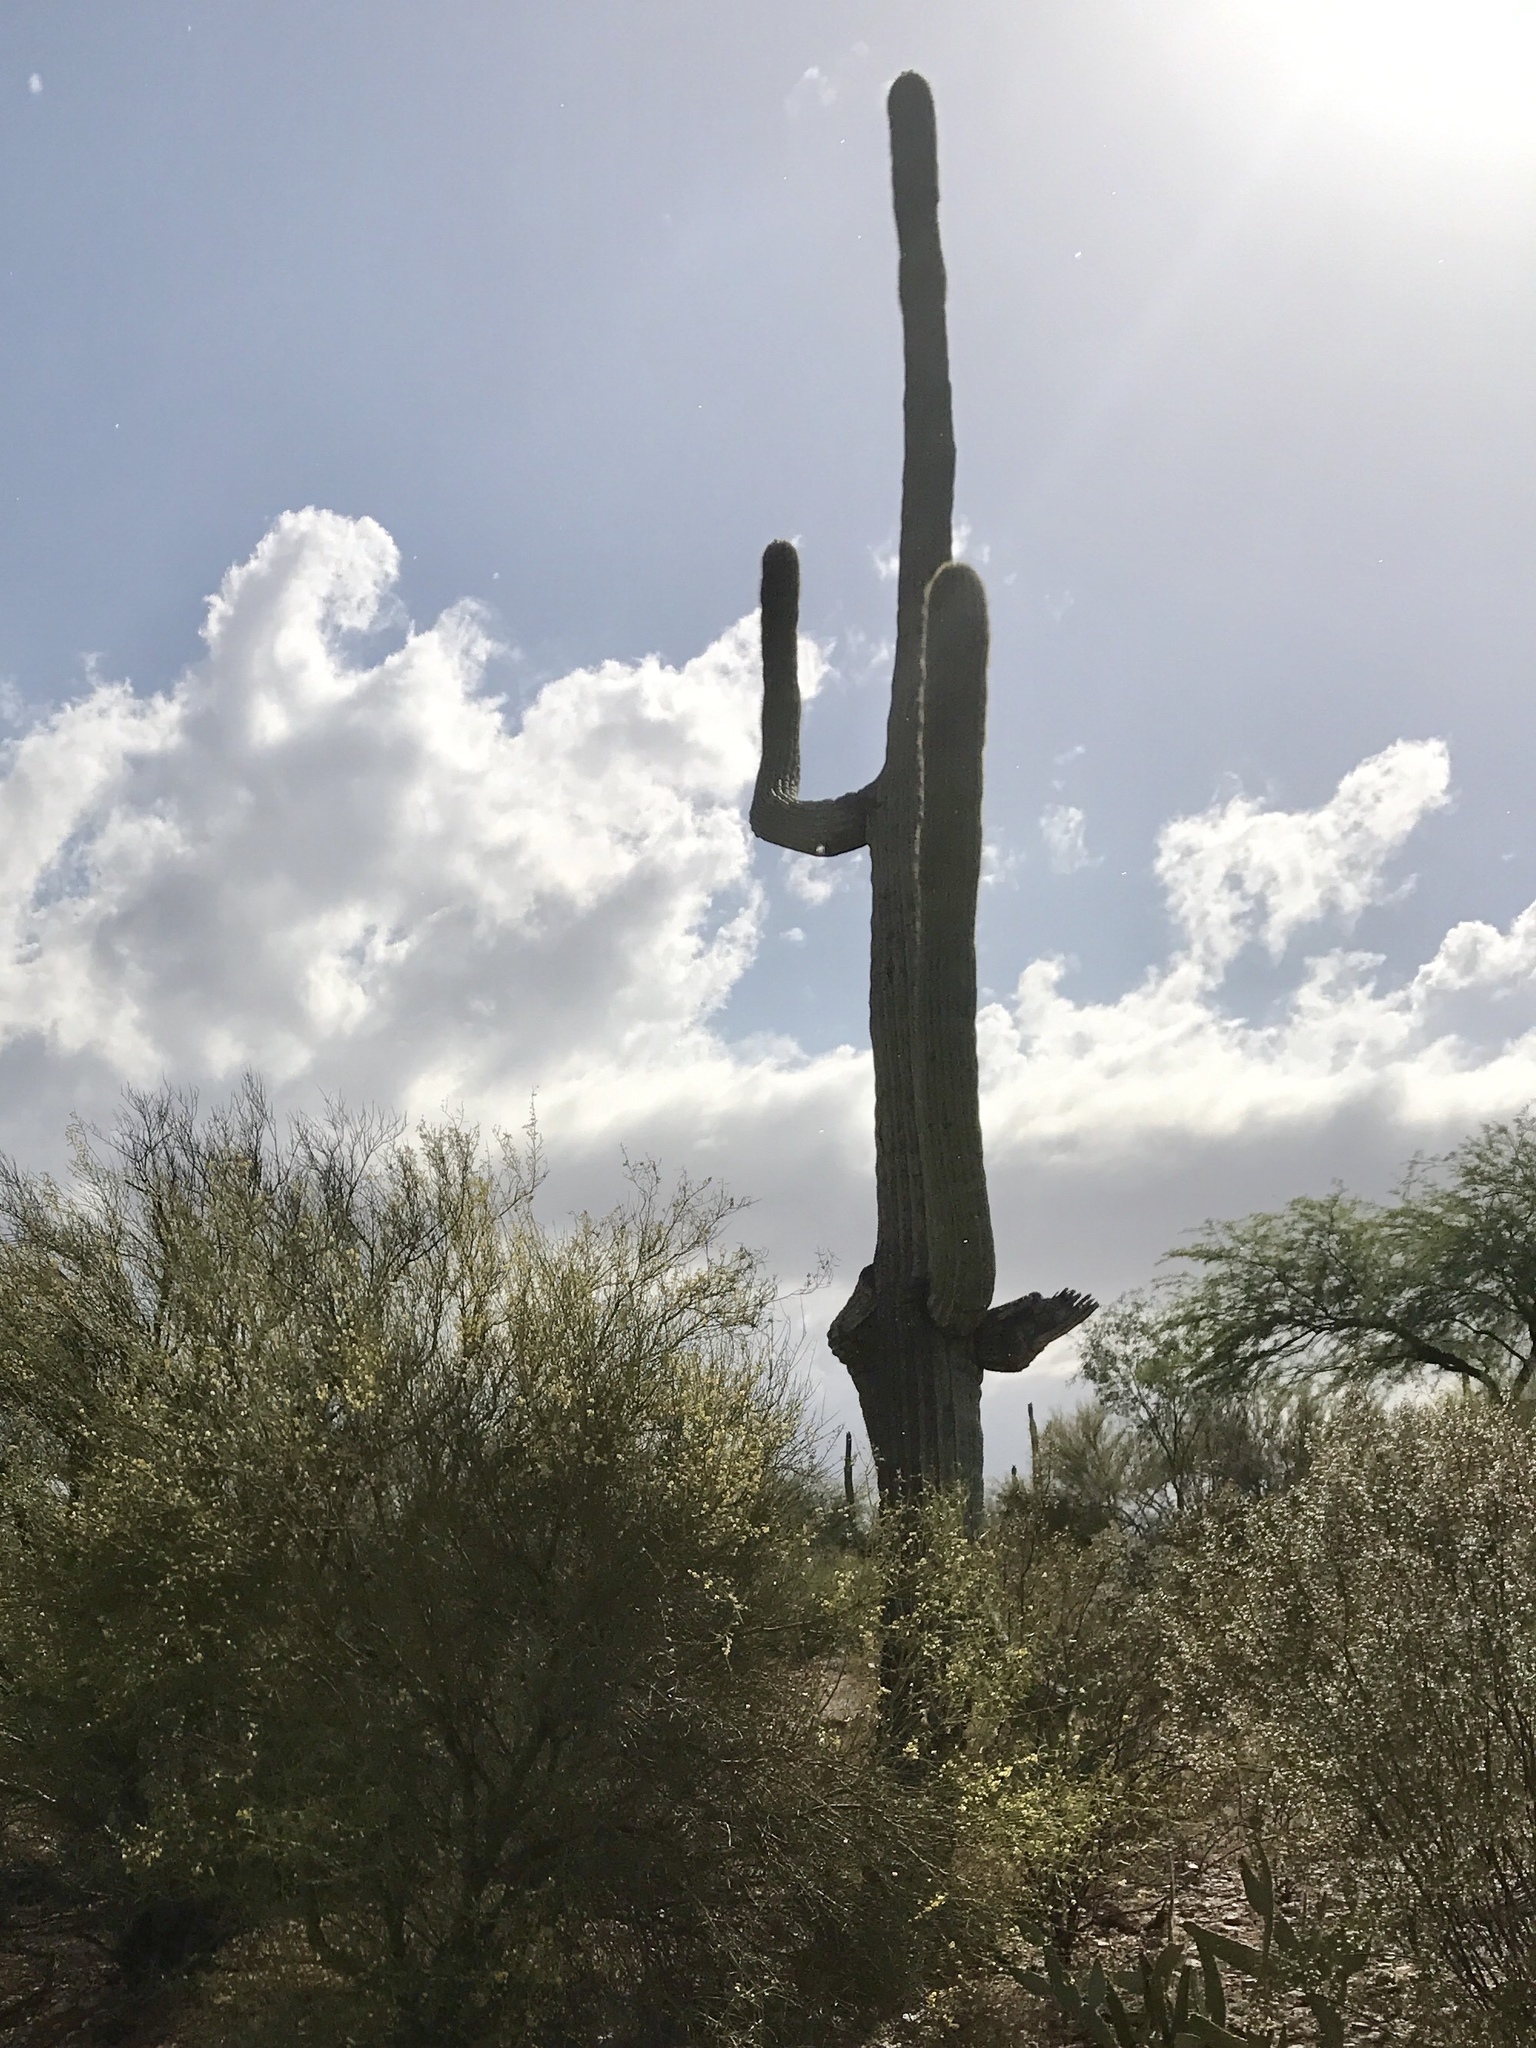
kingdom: Plantae
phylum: Tracheophyta
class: Magnoliopsida
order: Caryophyllales
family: Cactaceae
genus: Carnegiea
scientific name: Carnegiea gigantea
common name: Saguaro
